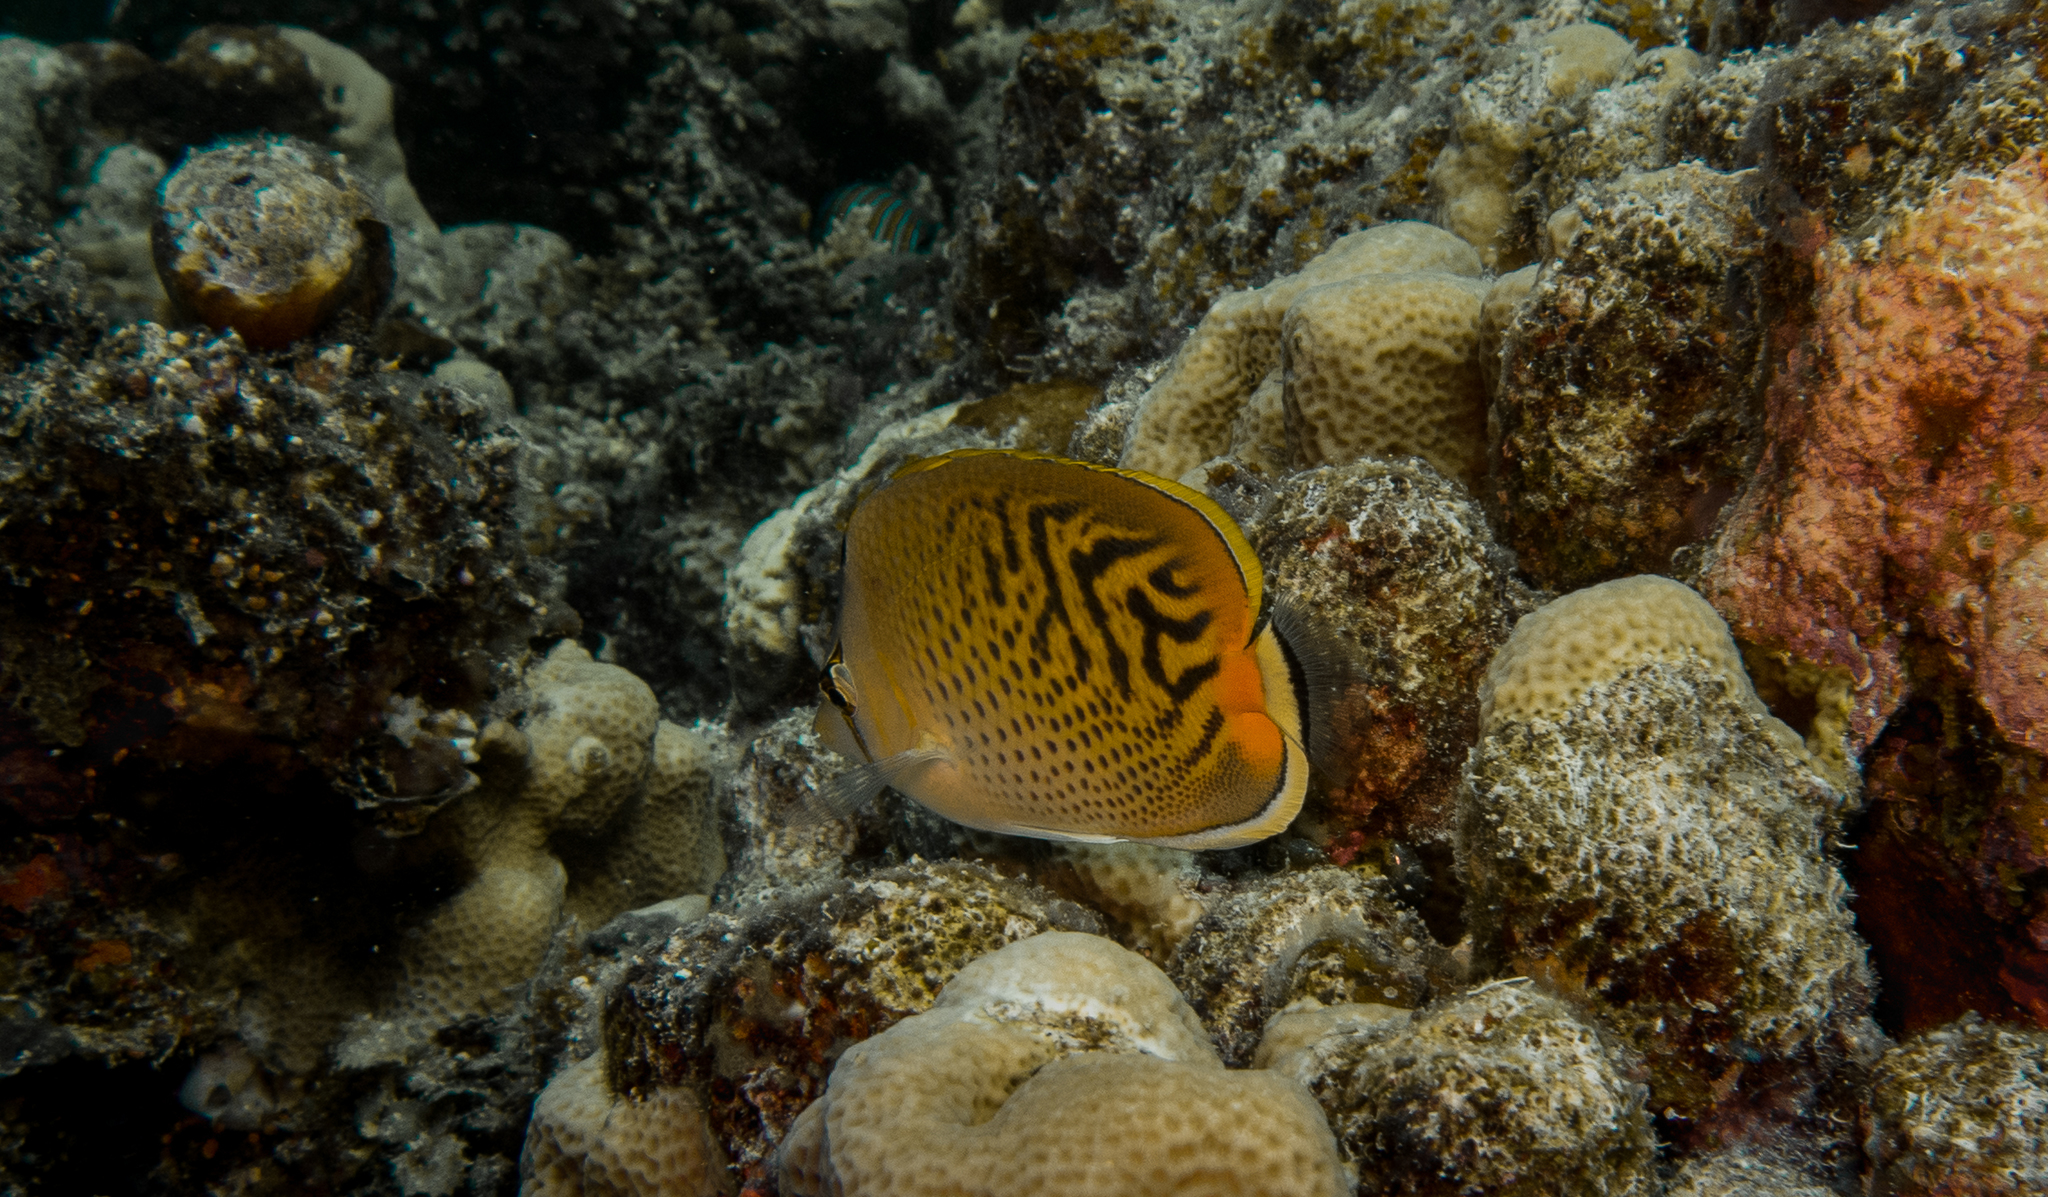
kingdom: Animalia
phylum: Chordata
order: Perciformes
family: Chaetodontidae
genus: Chaetodon
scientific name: Chaetodon
